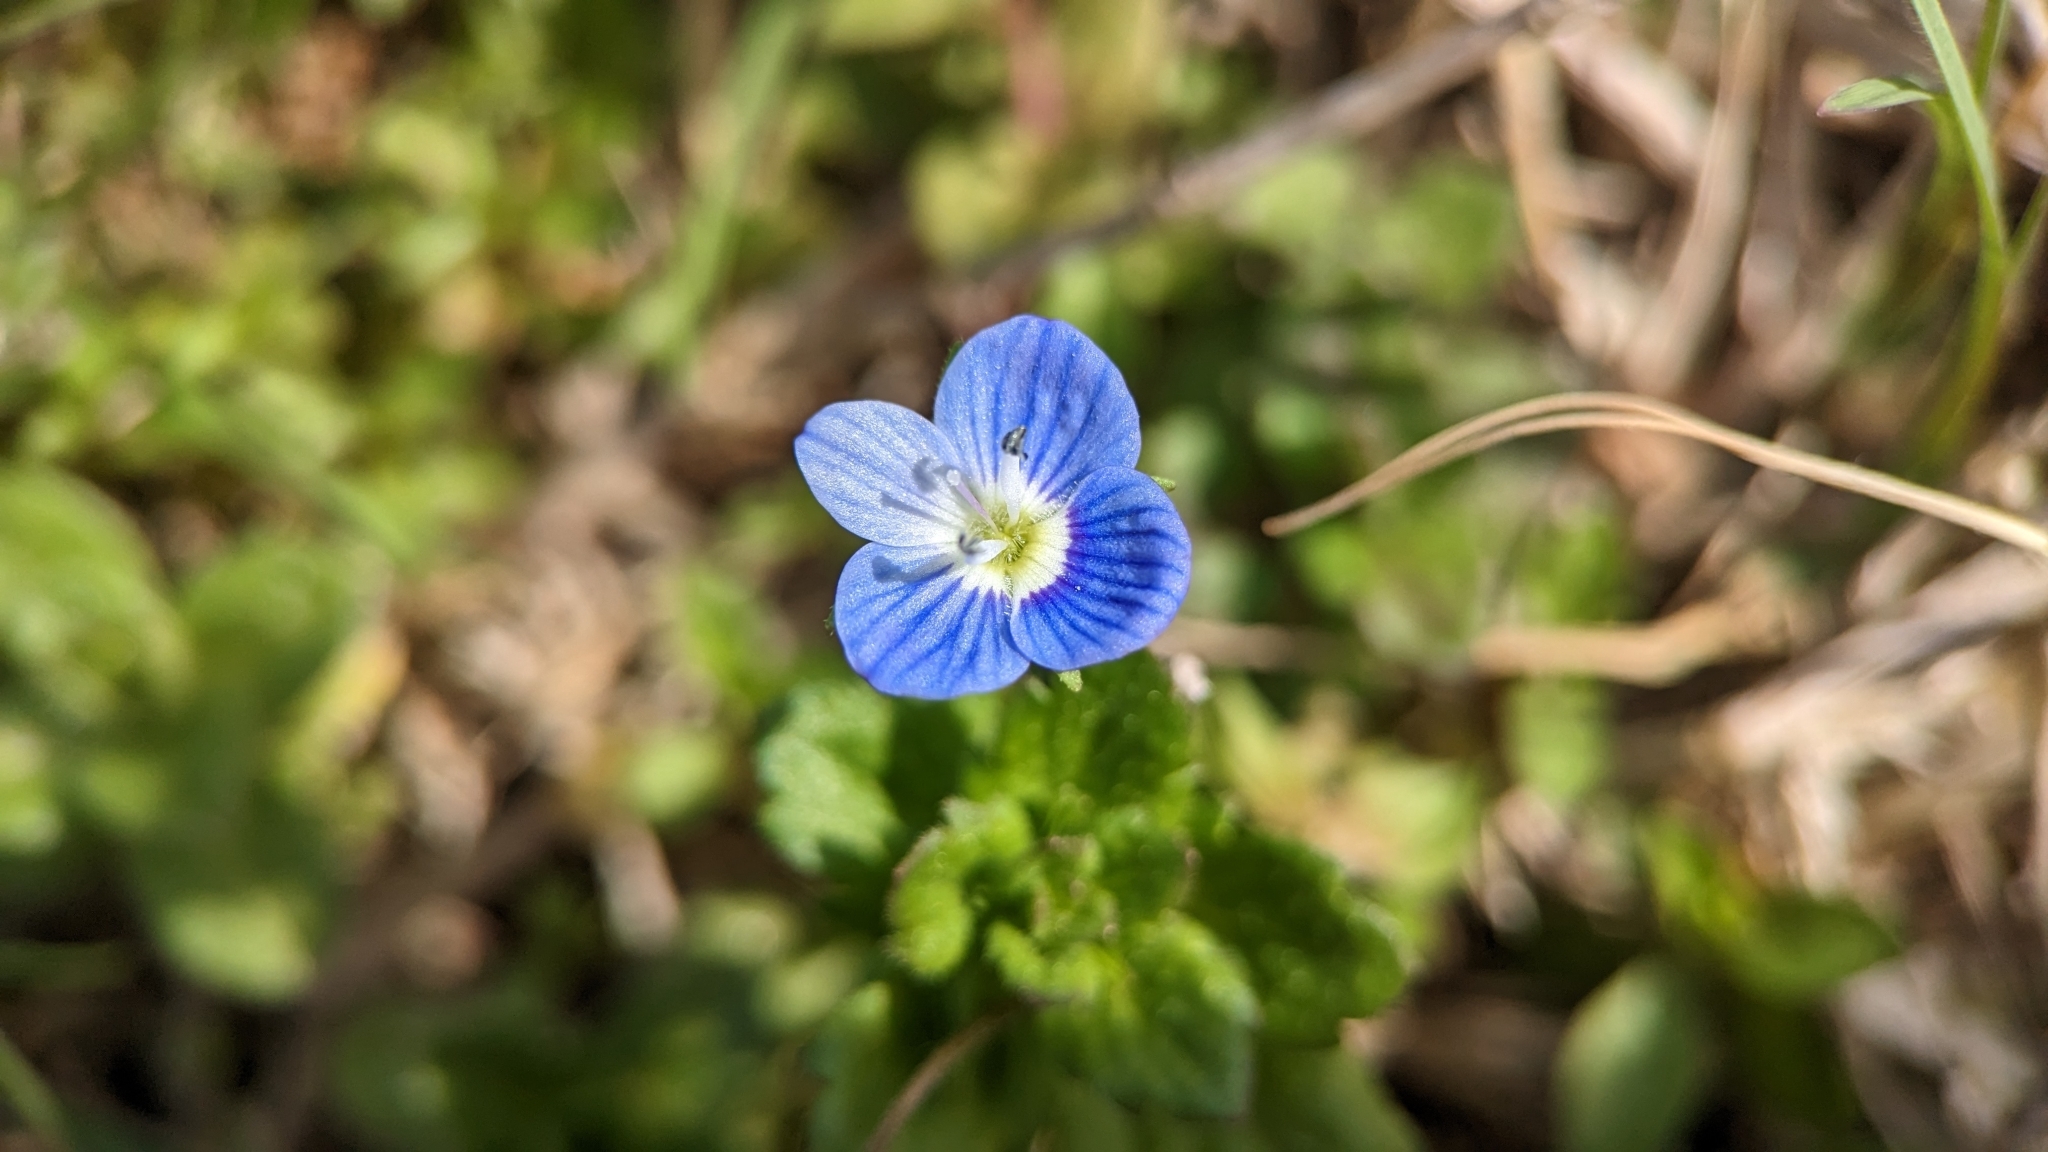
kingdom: Plantae
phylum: Tracheophyta
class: Magnoliopsida
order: Lamiales
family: Plantaginaceae
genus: Veronica
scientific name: Veronica persica
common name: Common field-speedwell
